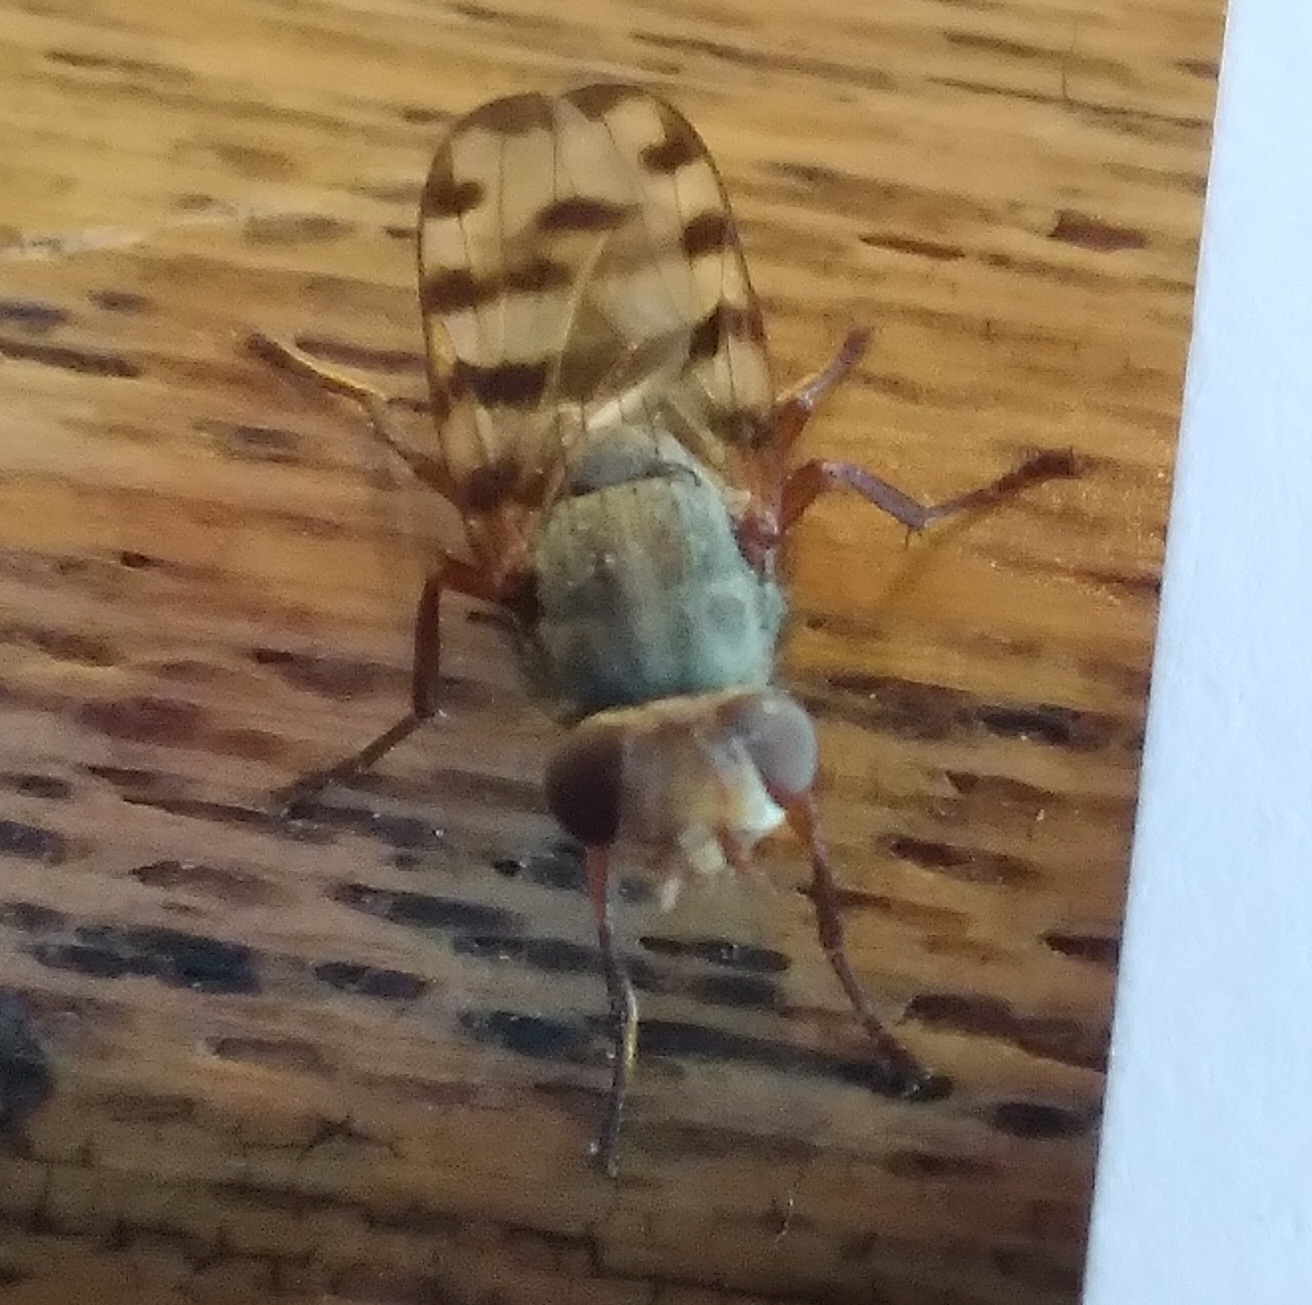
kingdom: Animalia
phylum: Arthropoda
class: Insecta
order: Diptera
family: Ulidiidae
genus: Ceroxys
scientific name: Ceroxys latiusculus
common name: Picture-winged fly
